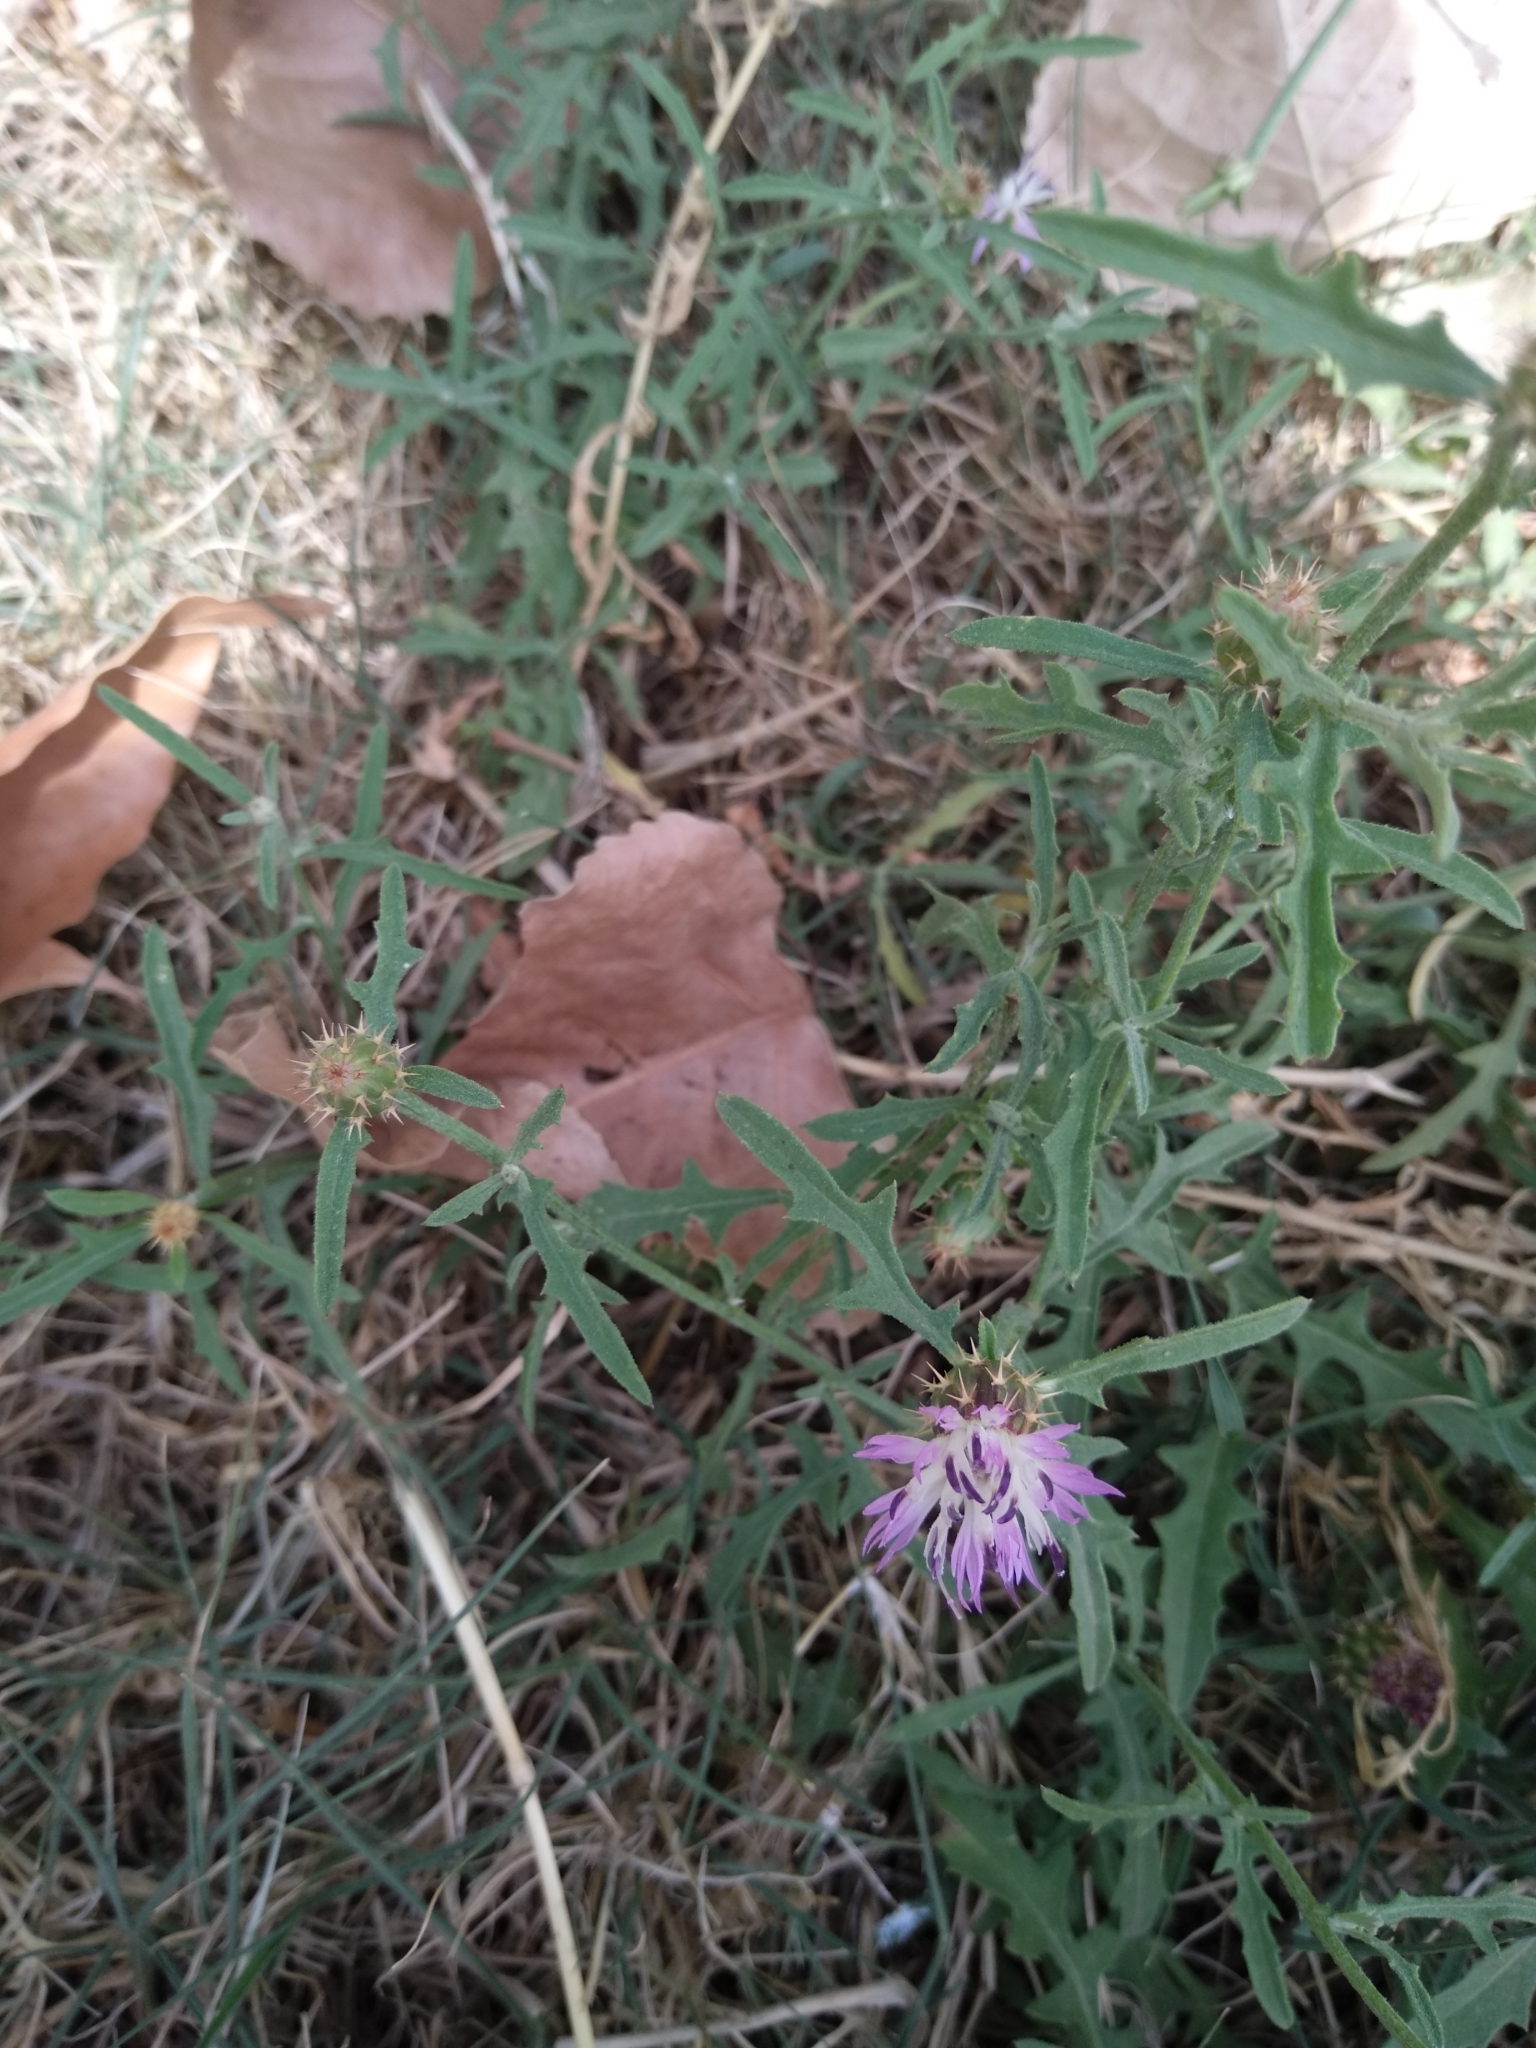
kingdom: Plantae
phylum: Tracheophyta
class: Magnoliopsida
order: Asterales
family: Asteraceae
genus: Centaurea
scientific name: Centaurea aspera
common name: Rough star-thistle
